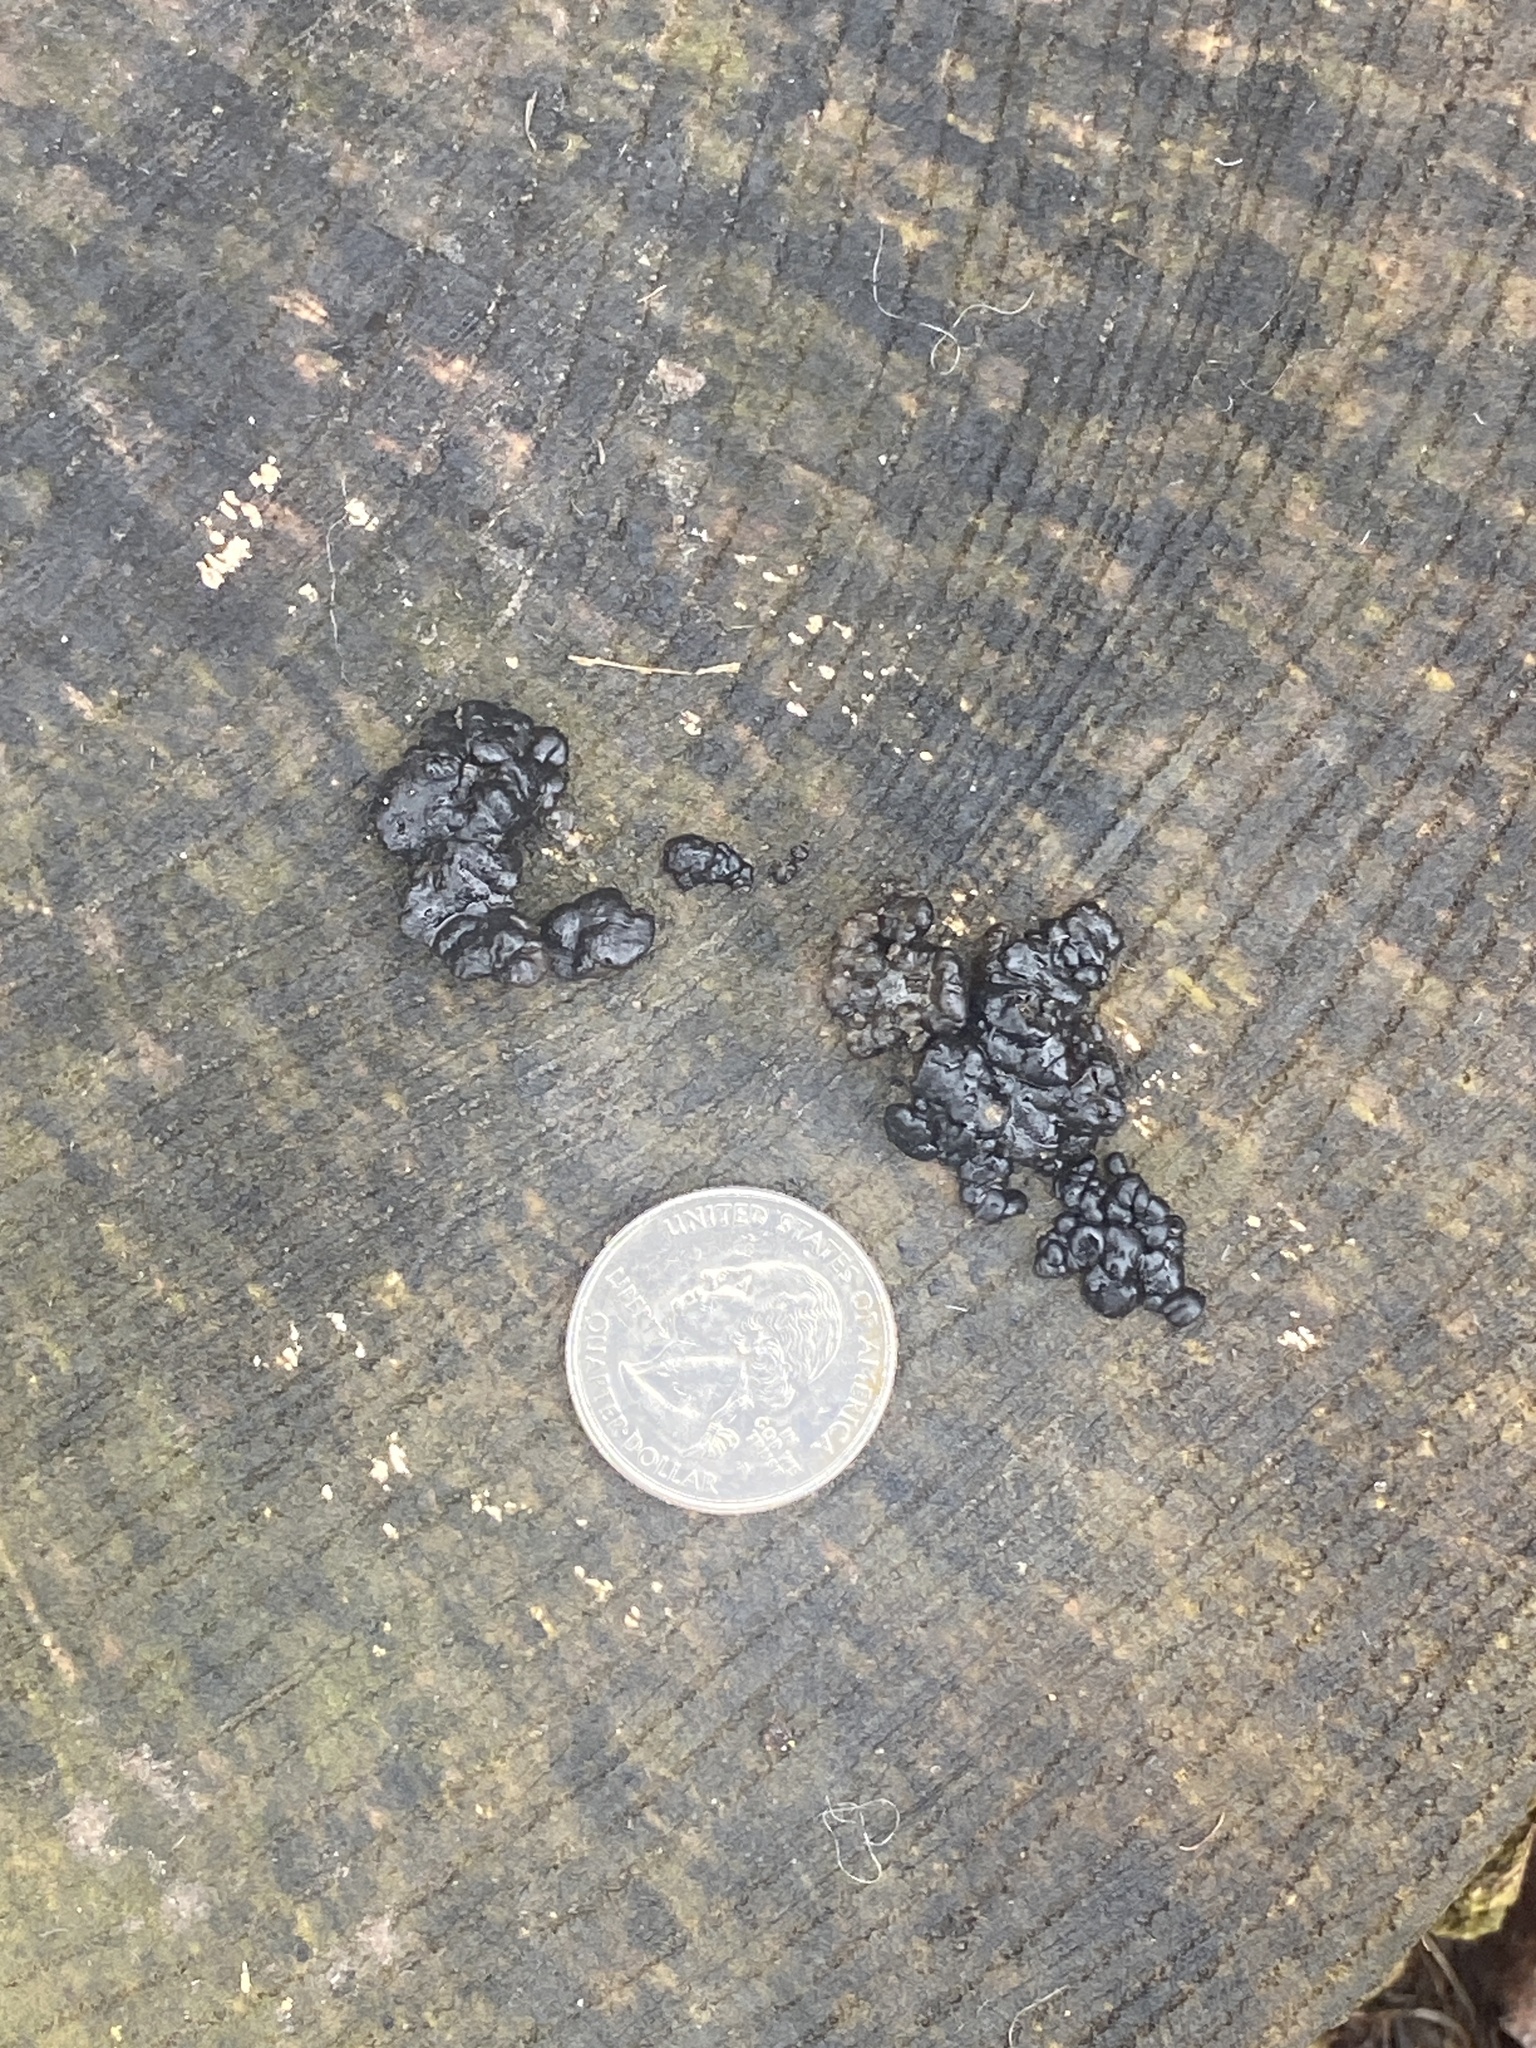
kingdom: Fungi
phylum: Basidiomycota
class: Agaricomycetes
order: Auriculariales
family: Auriculariaceae
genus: Exidia
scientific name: Exidia nigricans
